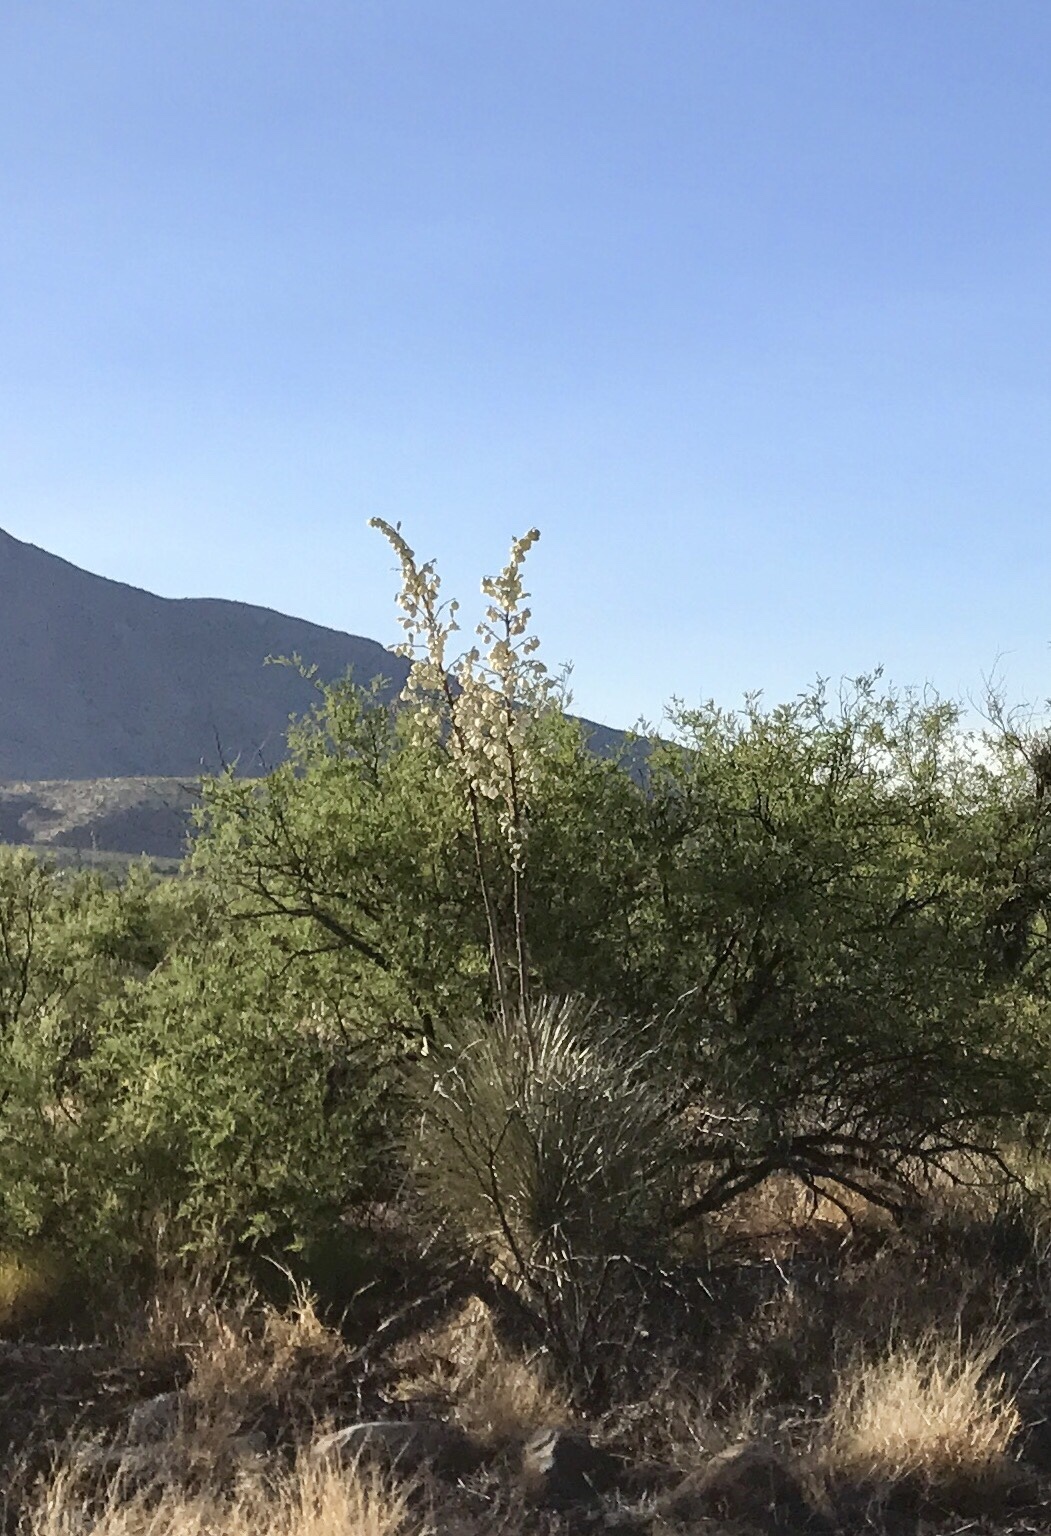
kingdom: Plantae
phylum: Tracheophyta
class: Liliopsida
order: Asparagales
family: Asparagaceae
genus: Yucca
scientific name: Yucca elata
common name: Palmella
